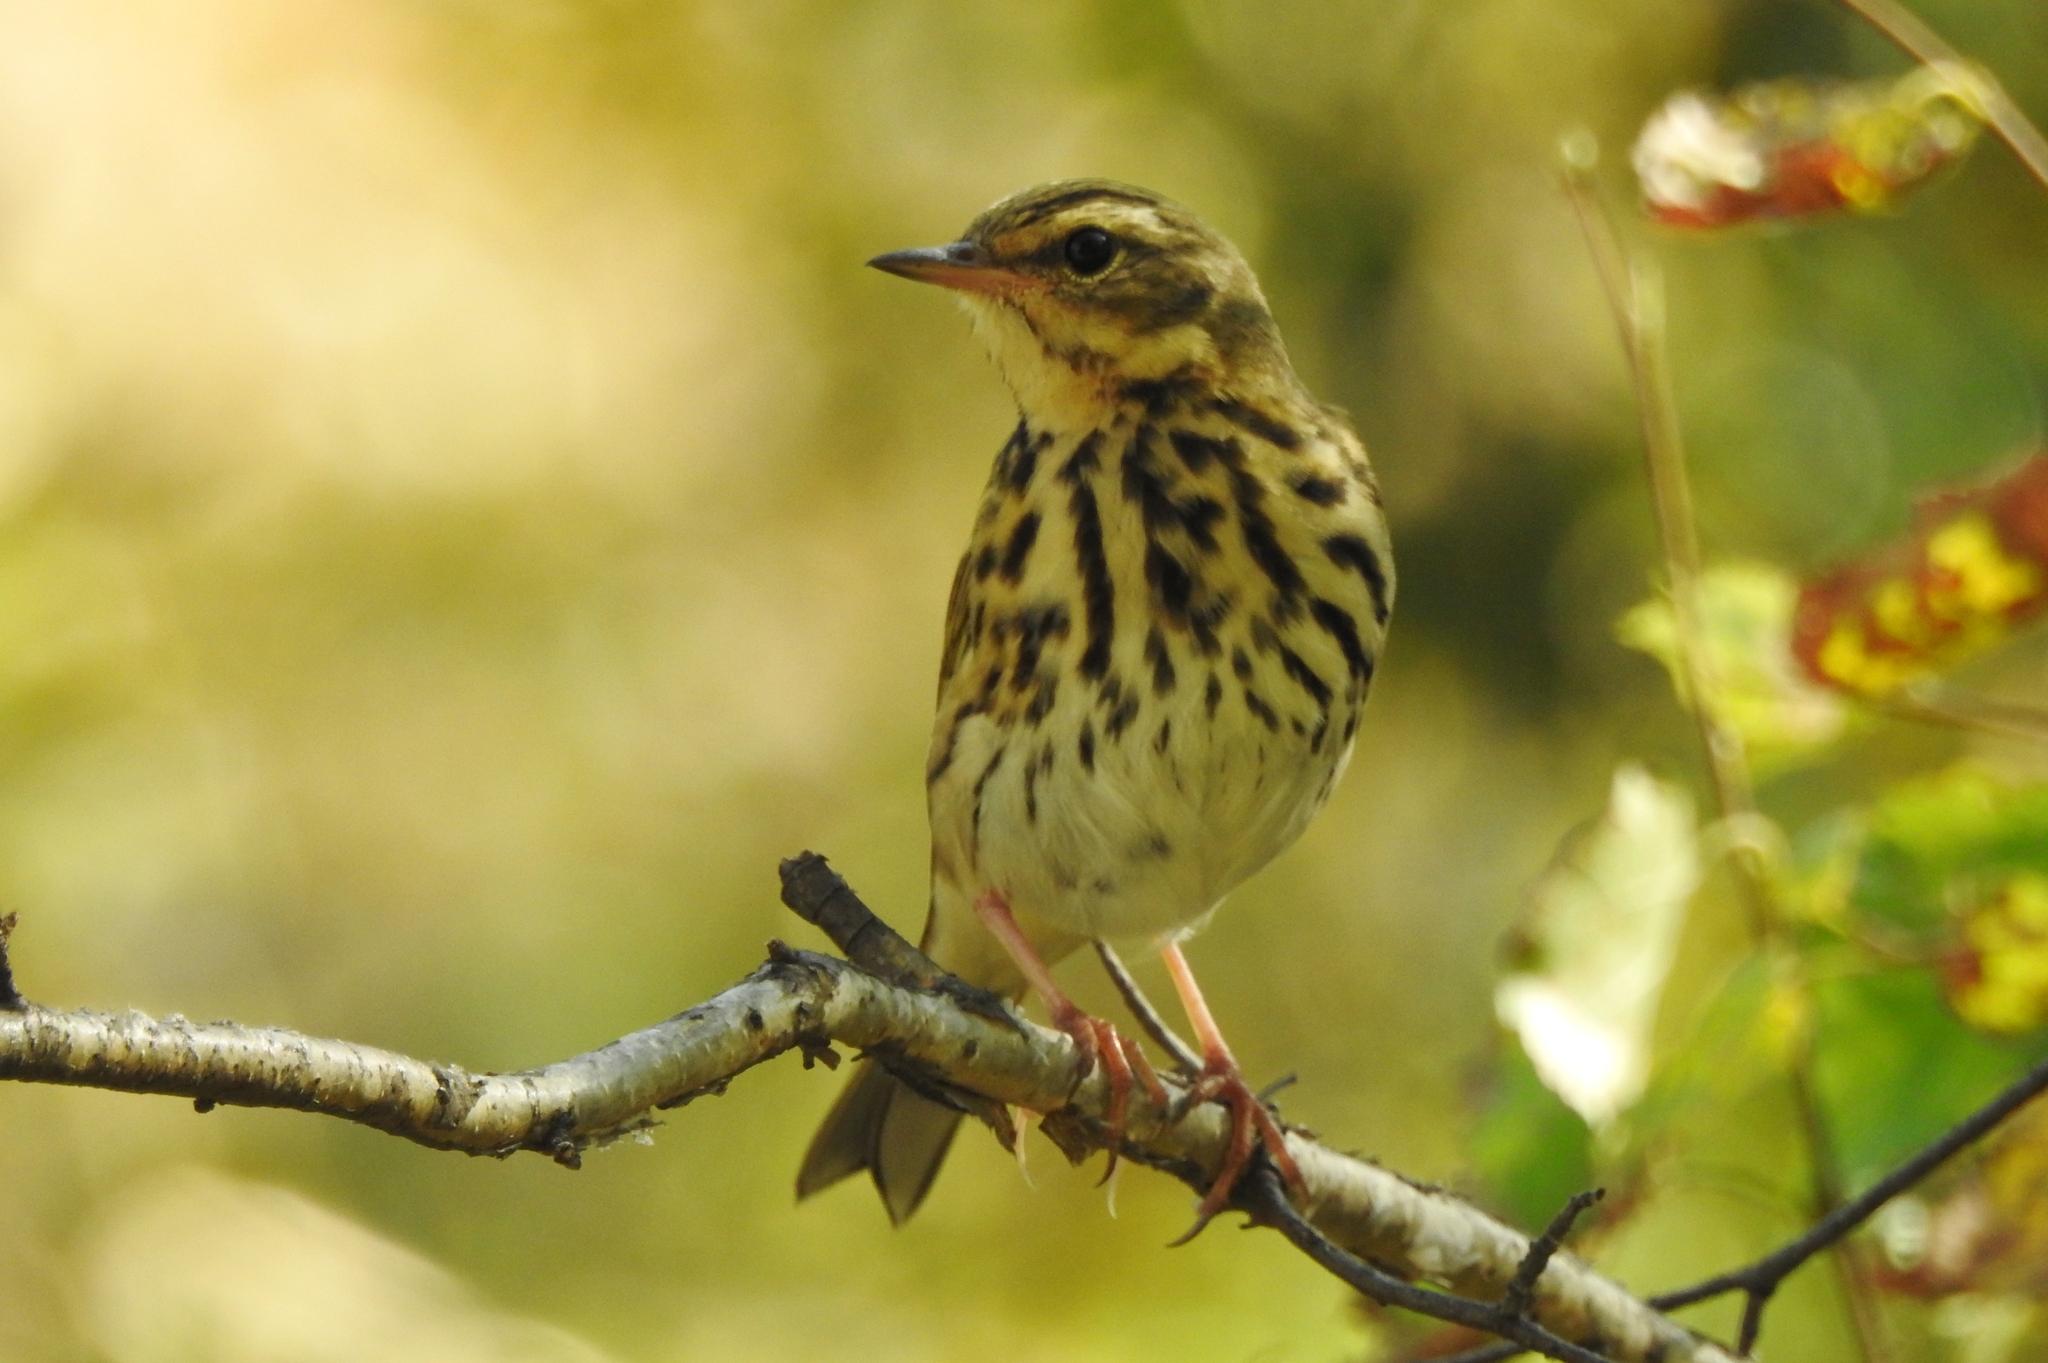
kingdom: Animalia
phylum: Chordata
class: Aves
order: Passeriformes
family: Motacillidae
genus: Anthus
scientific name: Anthus hodgsoni
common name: Olive-backed pipit
